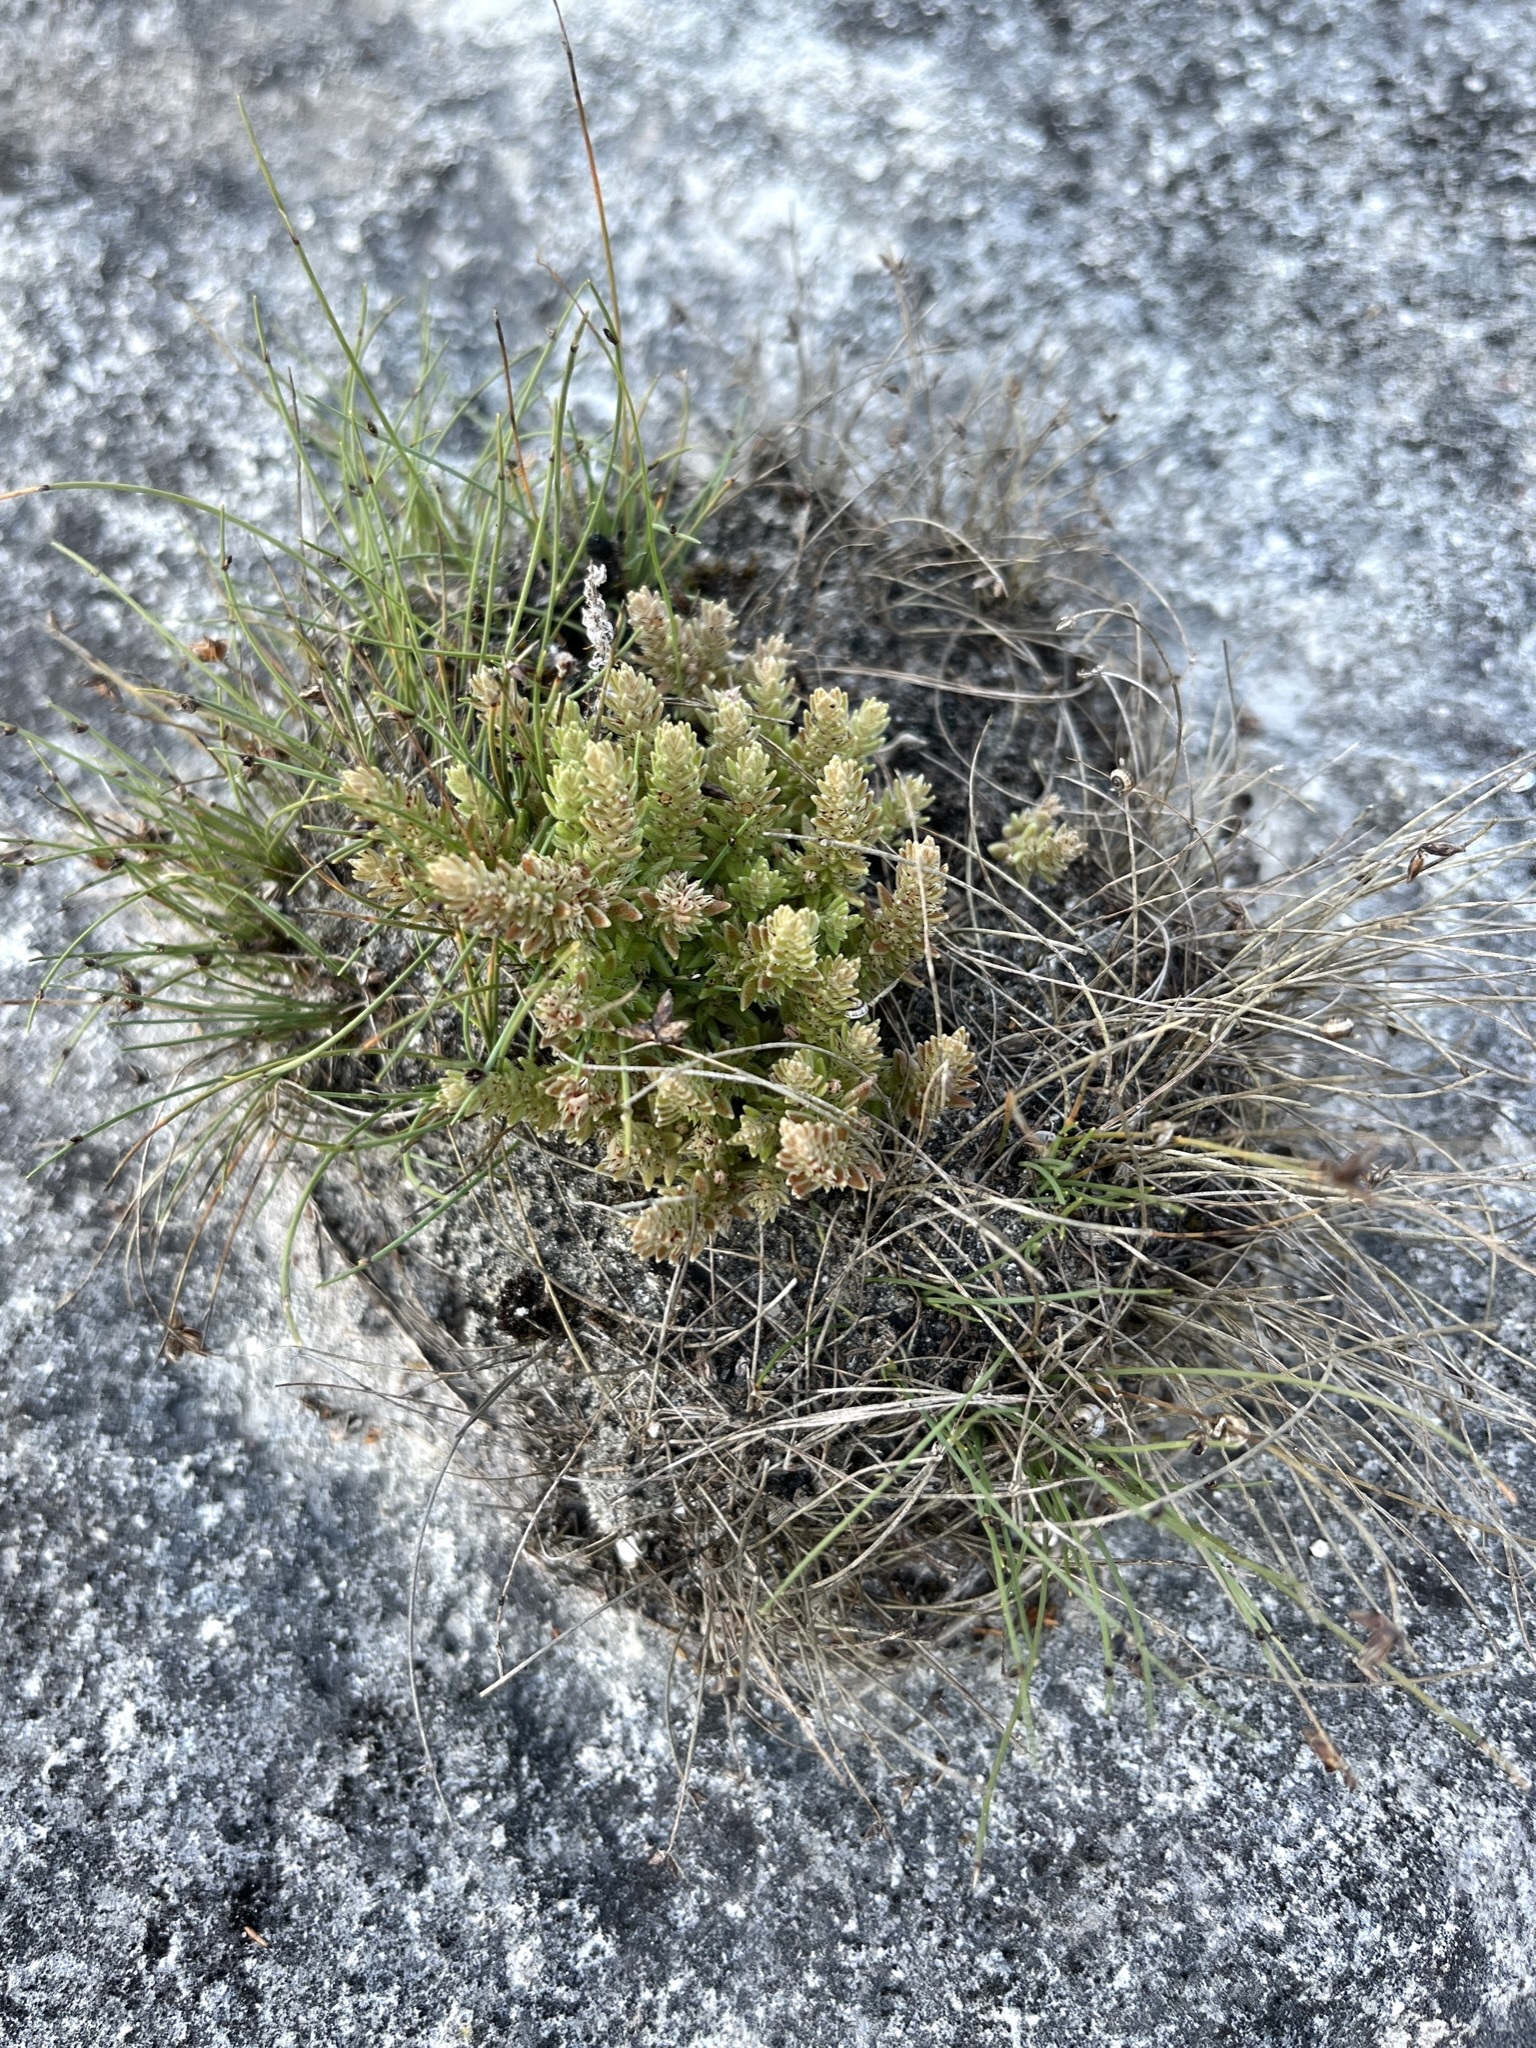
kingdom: Plantae
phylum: Tracheophyta
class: Magnoliopsida
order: Saxifragales
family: Crassulaceae
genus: Crassula
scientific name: Crassula lanceolata
